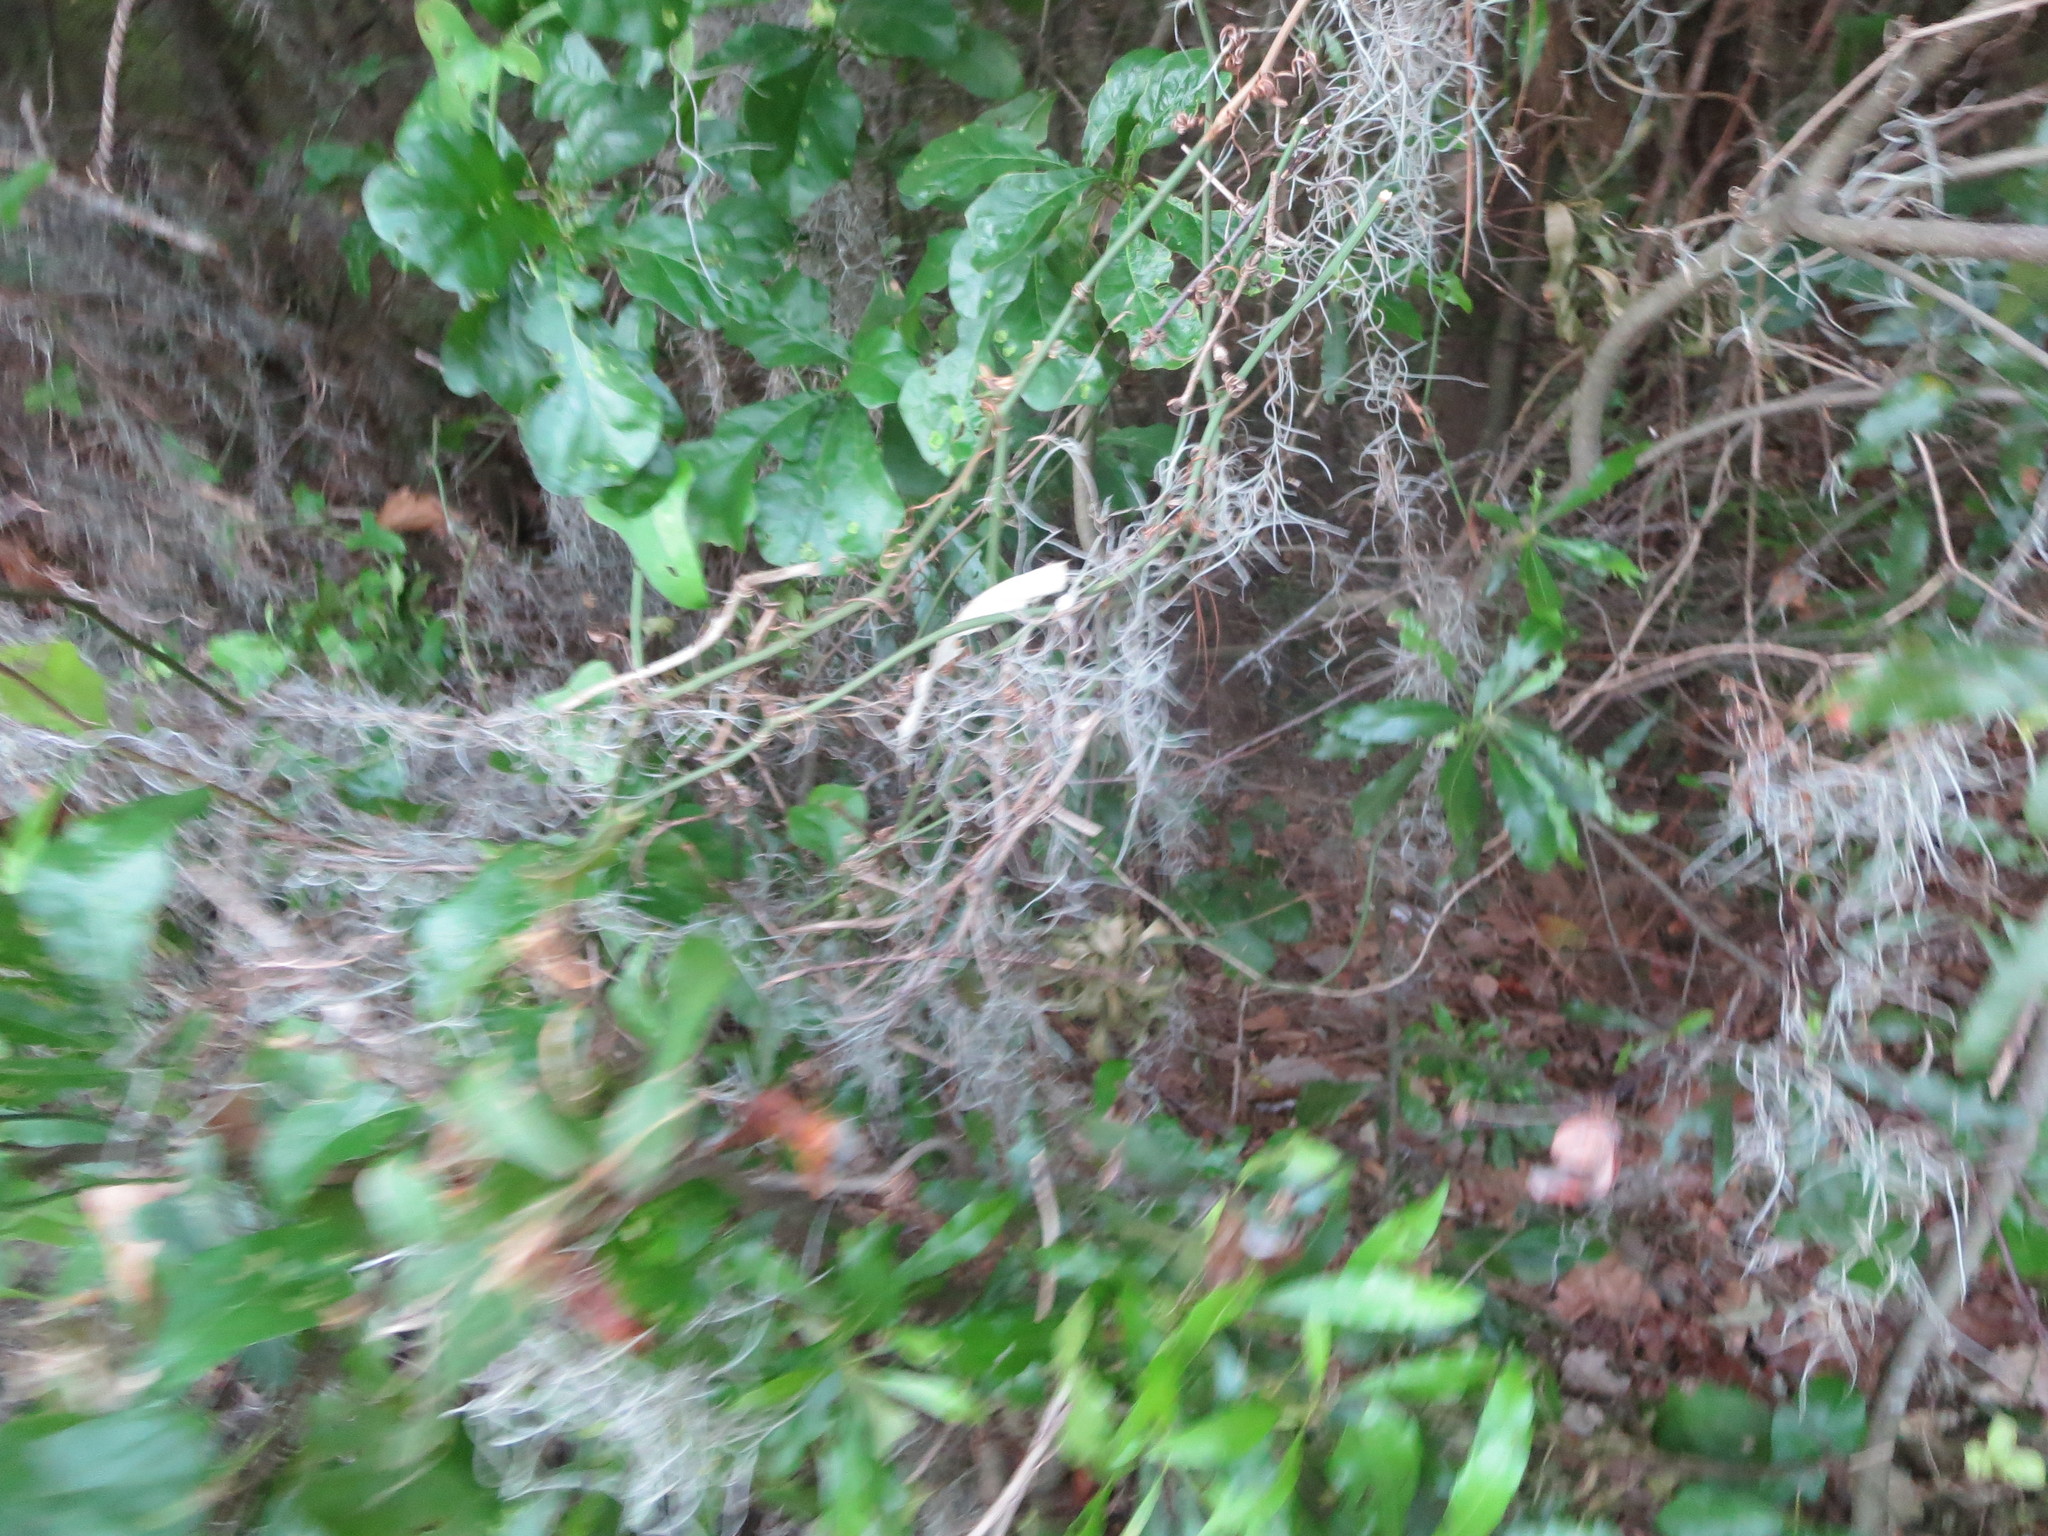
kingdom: Plantae
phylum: Tracheophyta
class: Liliopsida
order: Poales
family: Bromeliaceae
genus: Tillandsia
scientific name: Tillandsia usneoides
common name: Spanish moss
